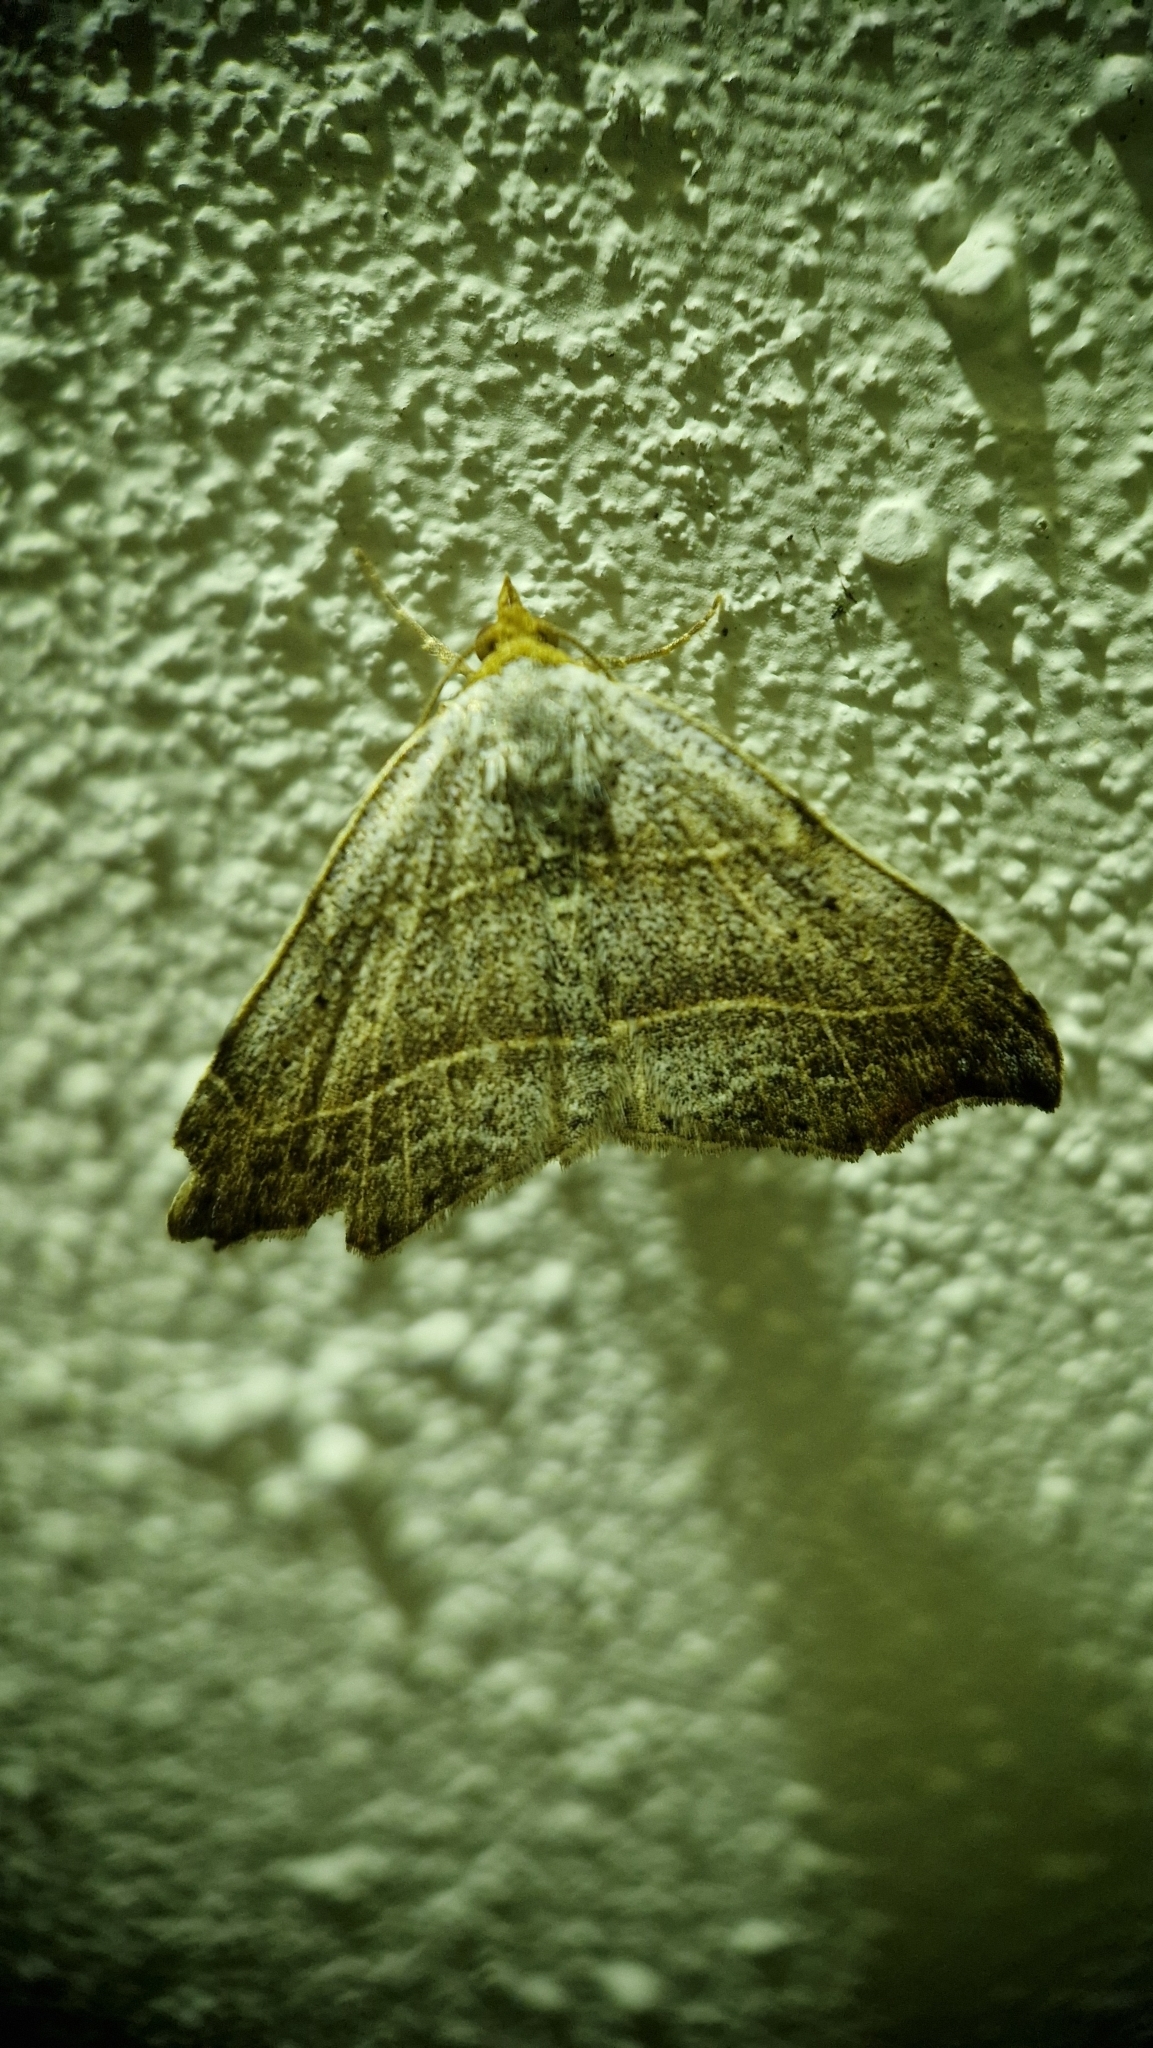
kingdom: Animalia
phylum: Arthropoda
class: Insecta
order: Lepidoptera
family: Erebidae
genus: Laspeyria
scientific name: Laspeyria flexula
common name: Beautiful hook-tip
